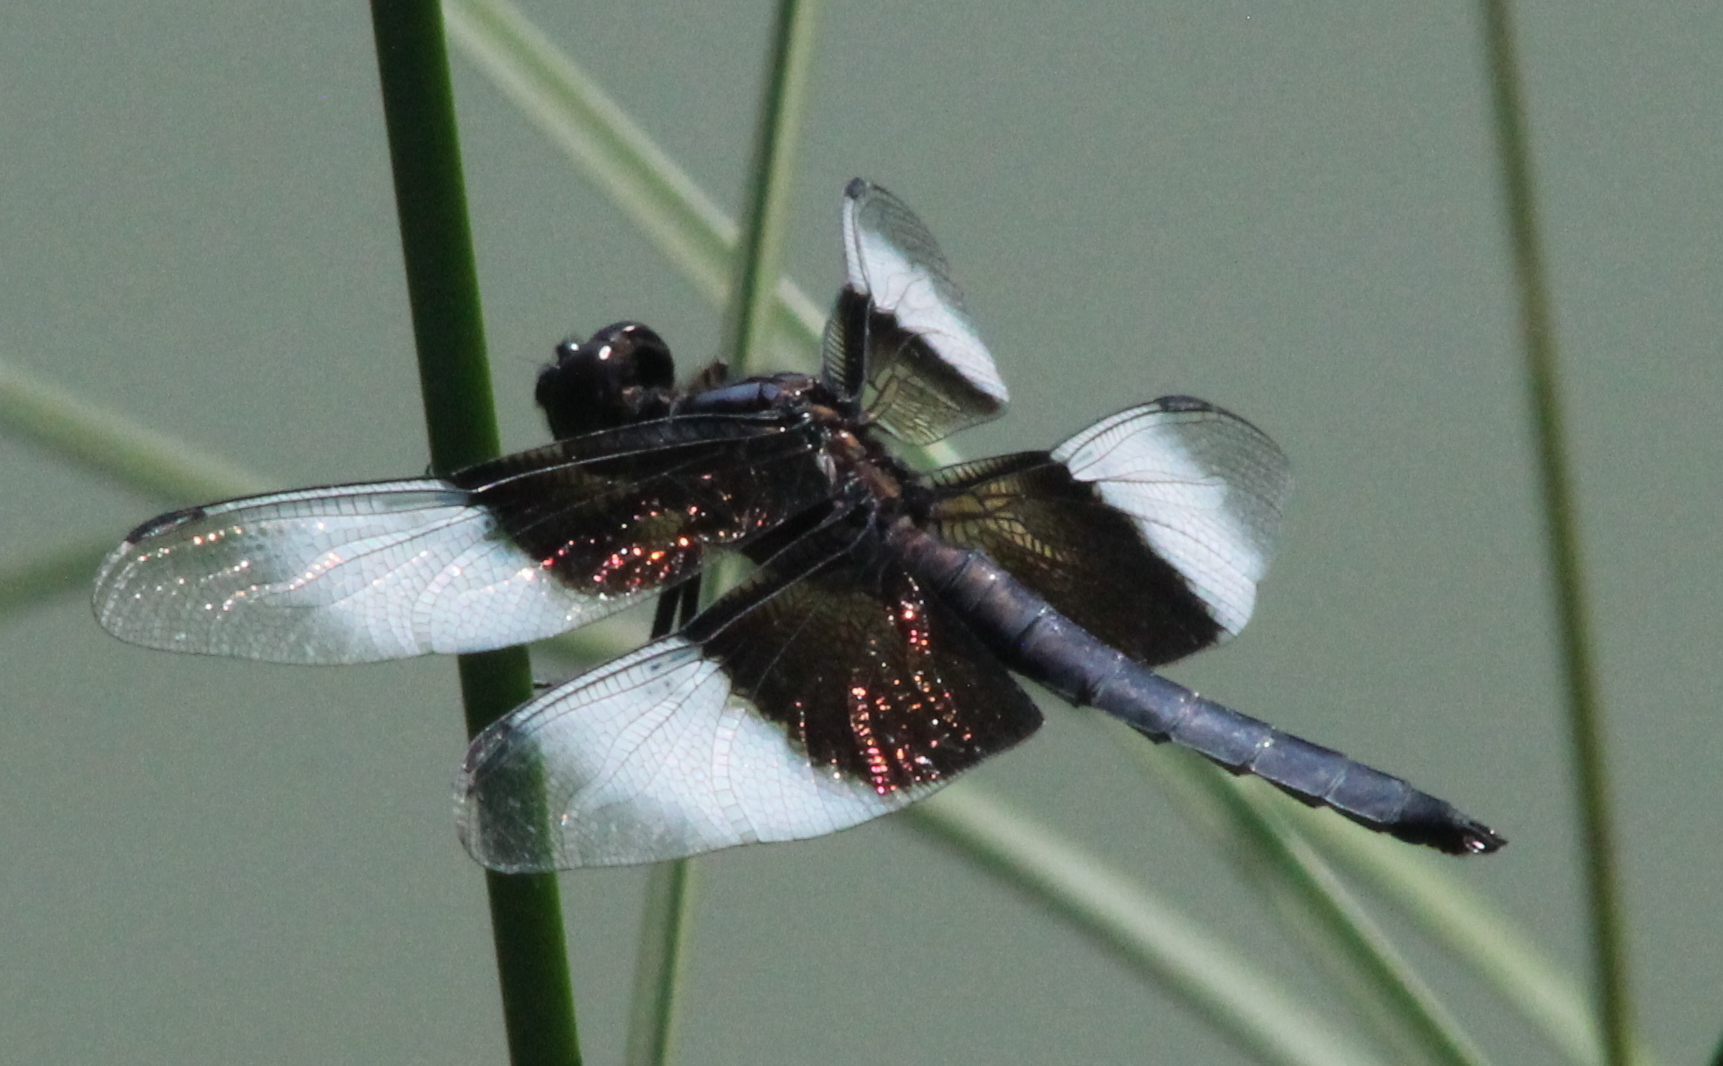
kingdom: Animalia
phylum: Arthropoda
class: Insecta
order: Odonata
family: Libellulidae
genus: Libellula
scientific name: Libellula luctuosa
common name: Widow skimmer
